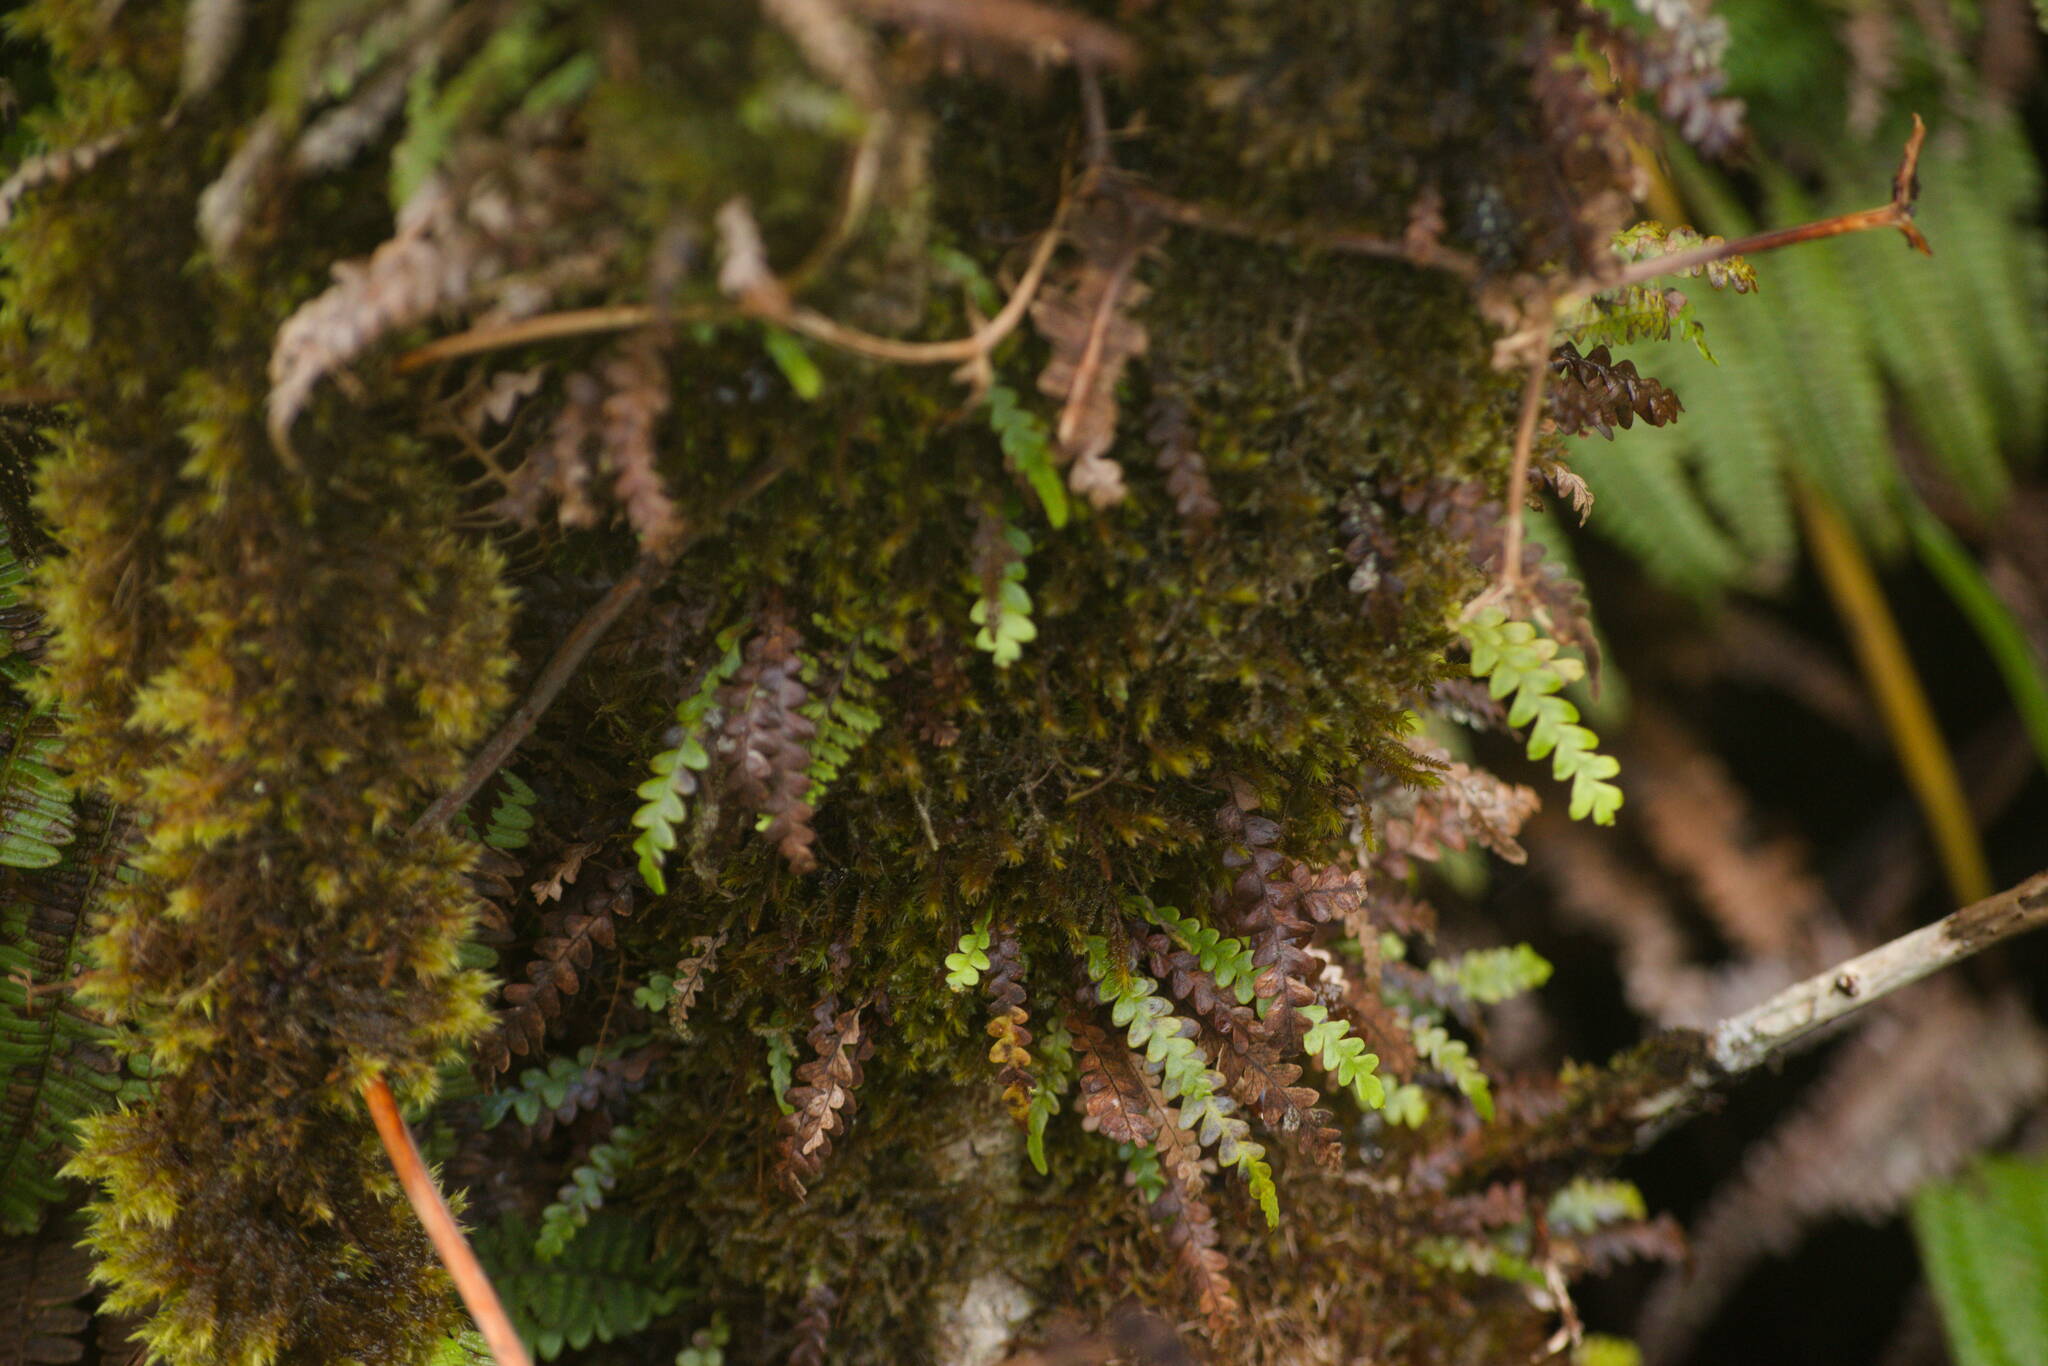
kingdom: Plantae
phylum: Tracheophyta
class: Polypodiopsida
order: Polypodiales
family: Polypodiaceae
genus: Adenophorus
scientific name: Adenophorus pinnatifidus
